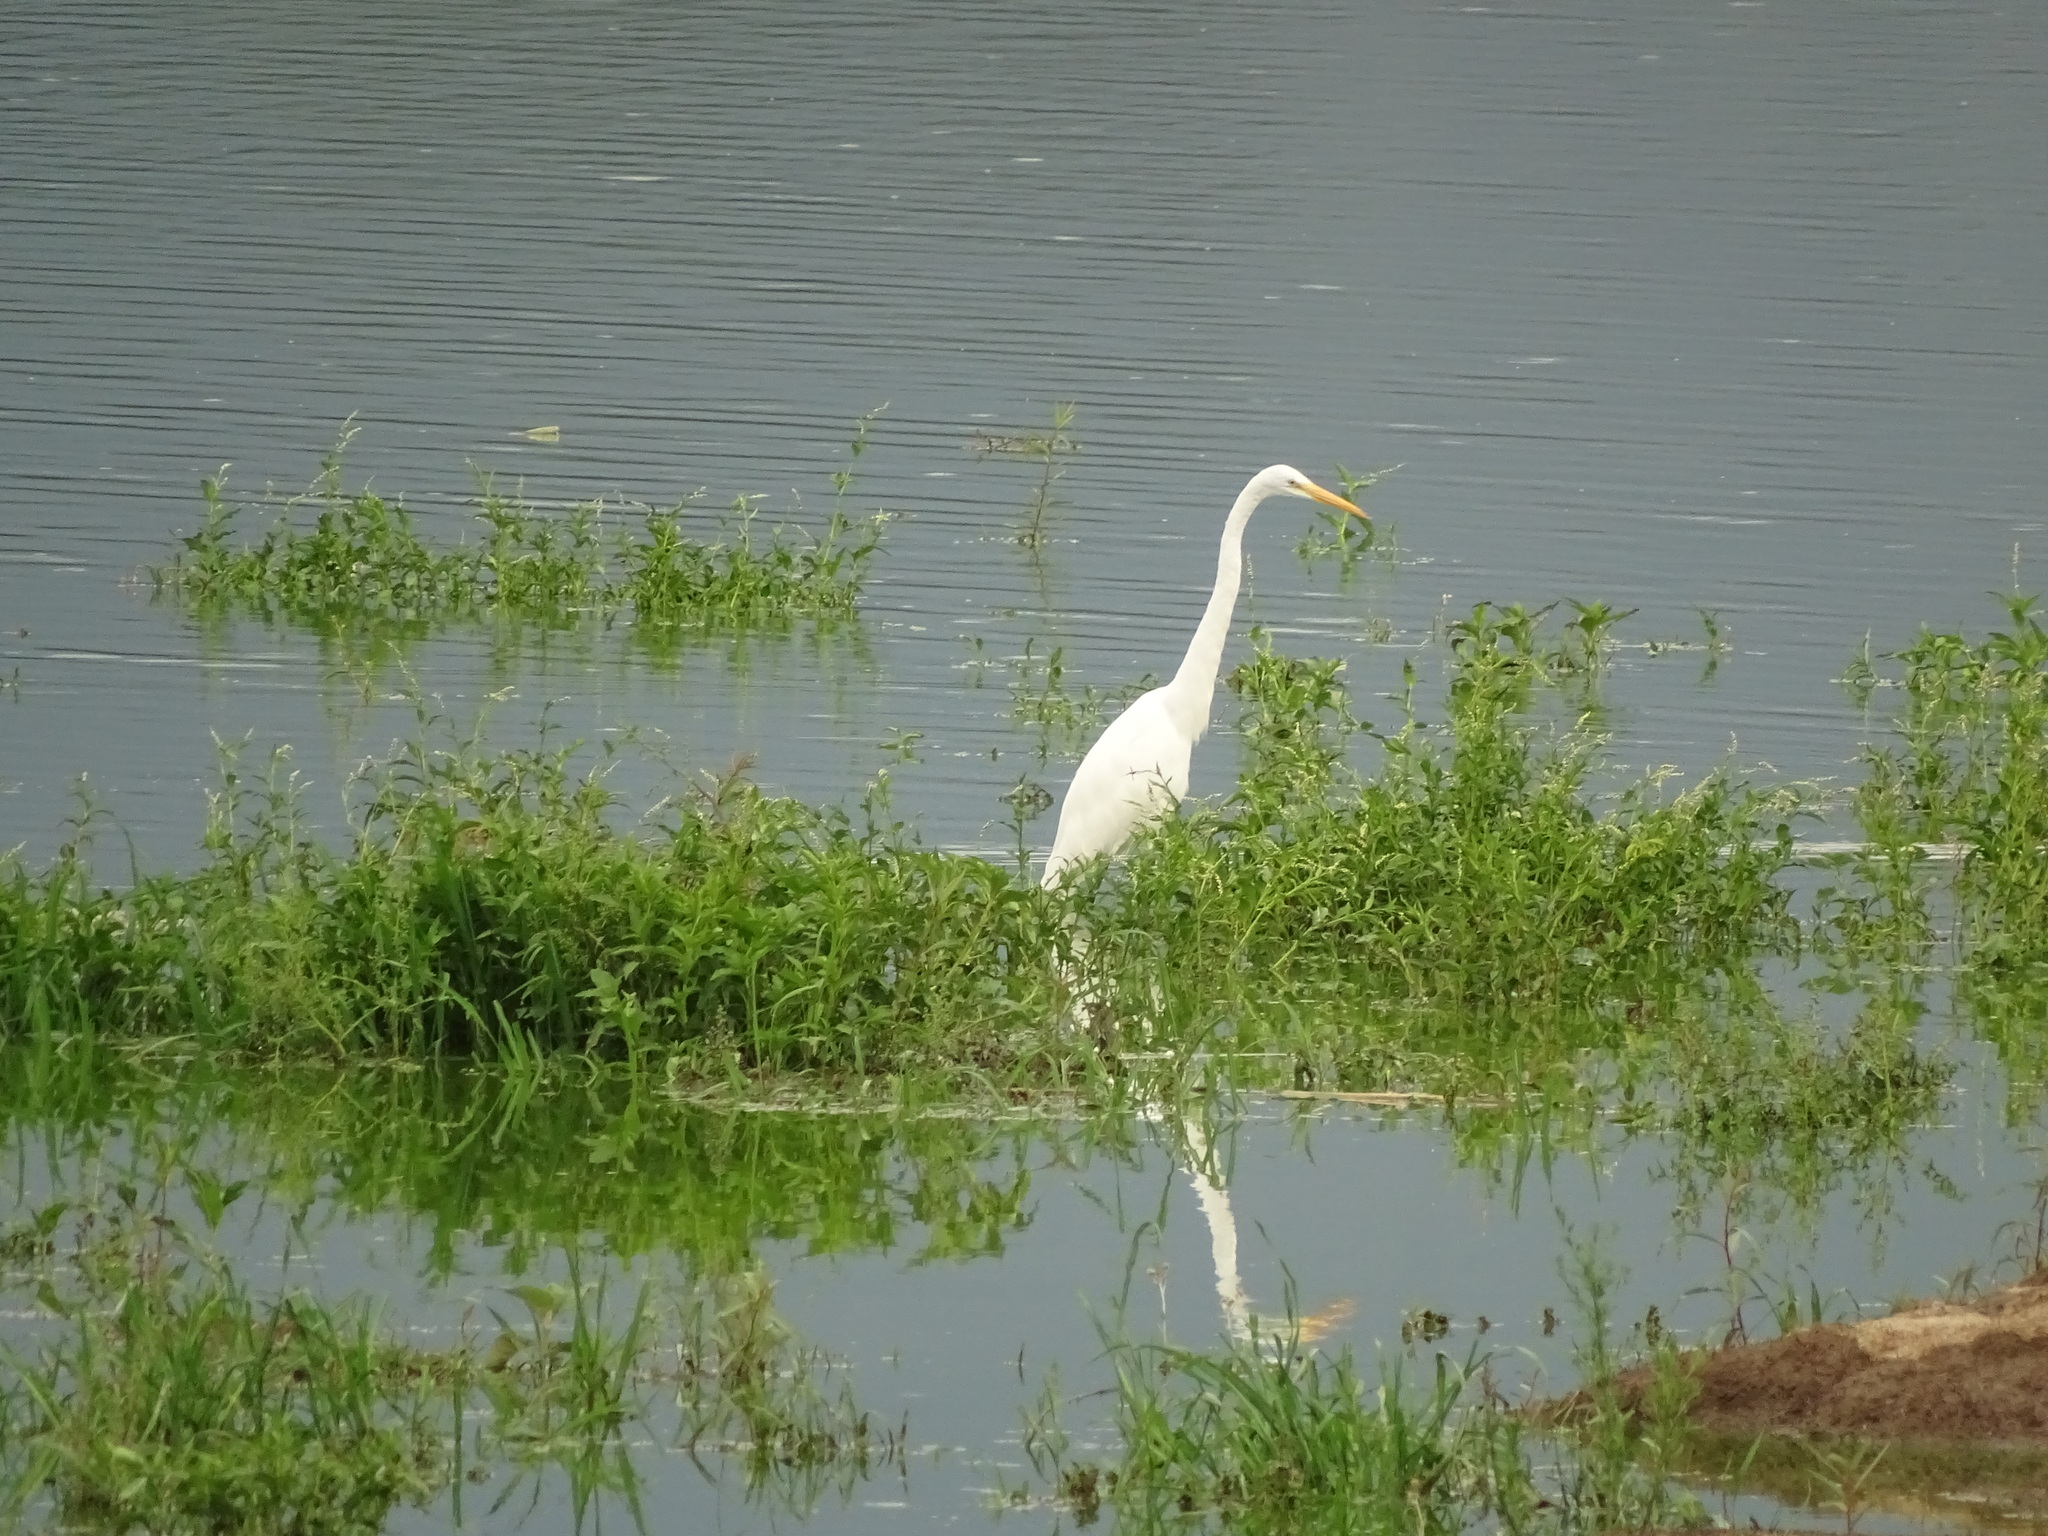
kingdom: Animalia
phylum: Chordata
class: Aves
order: Pelecaniformes
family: Ardeidae
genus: Ardea
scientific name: Ardea alba
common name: Great egret
